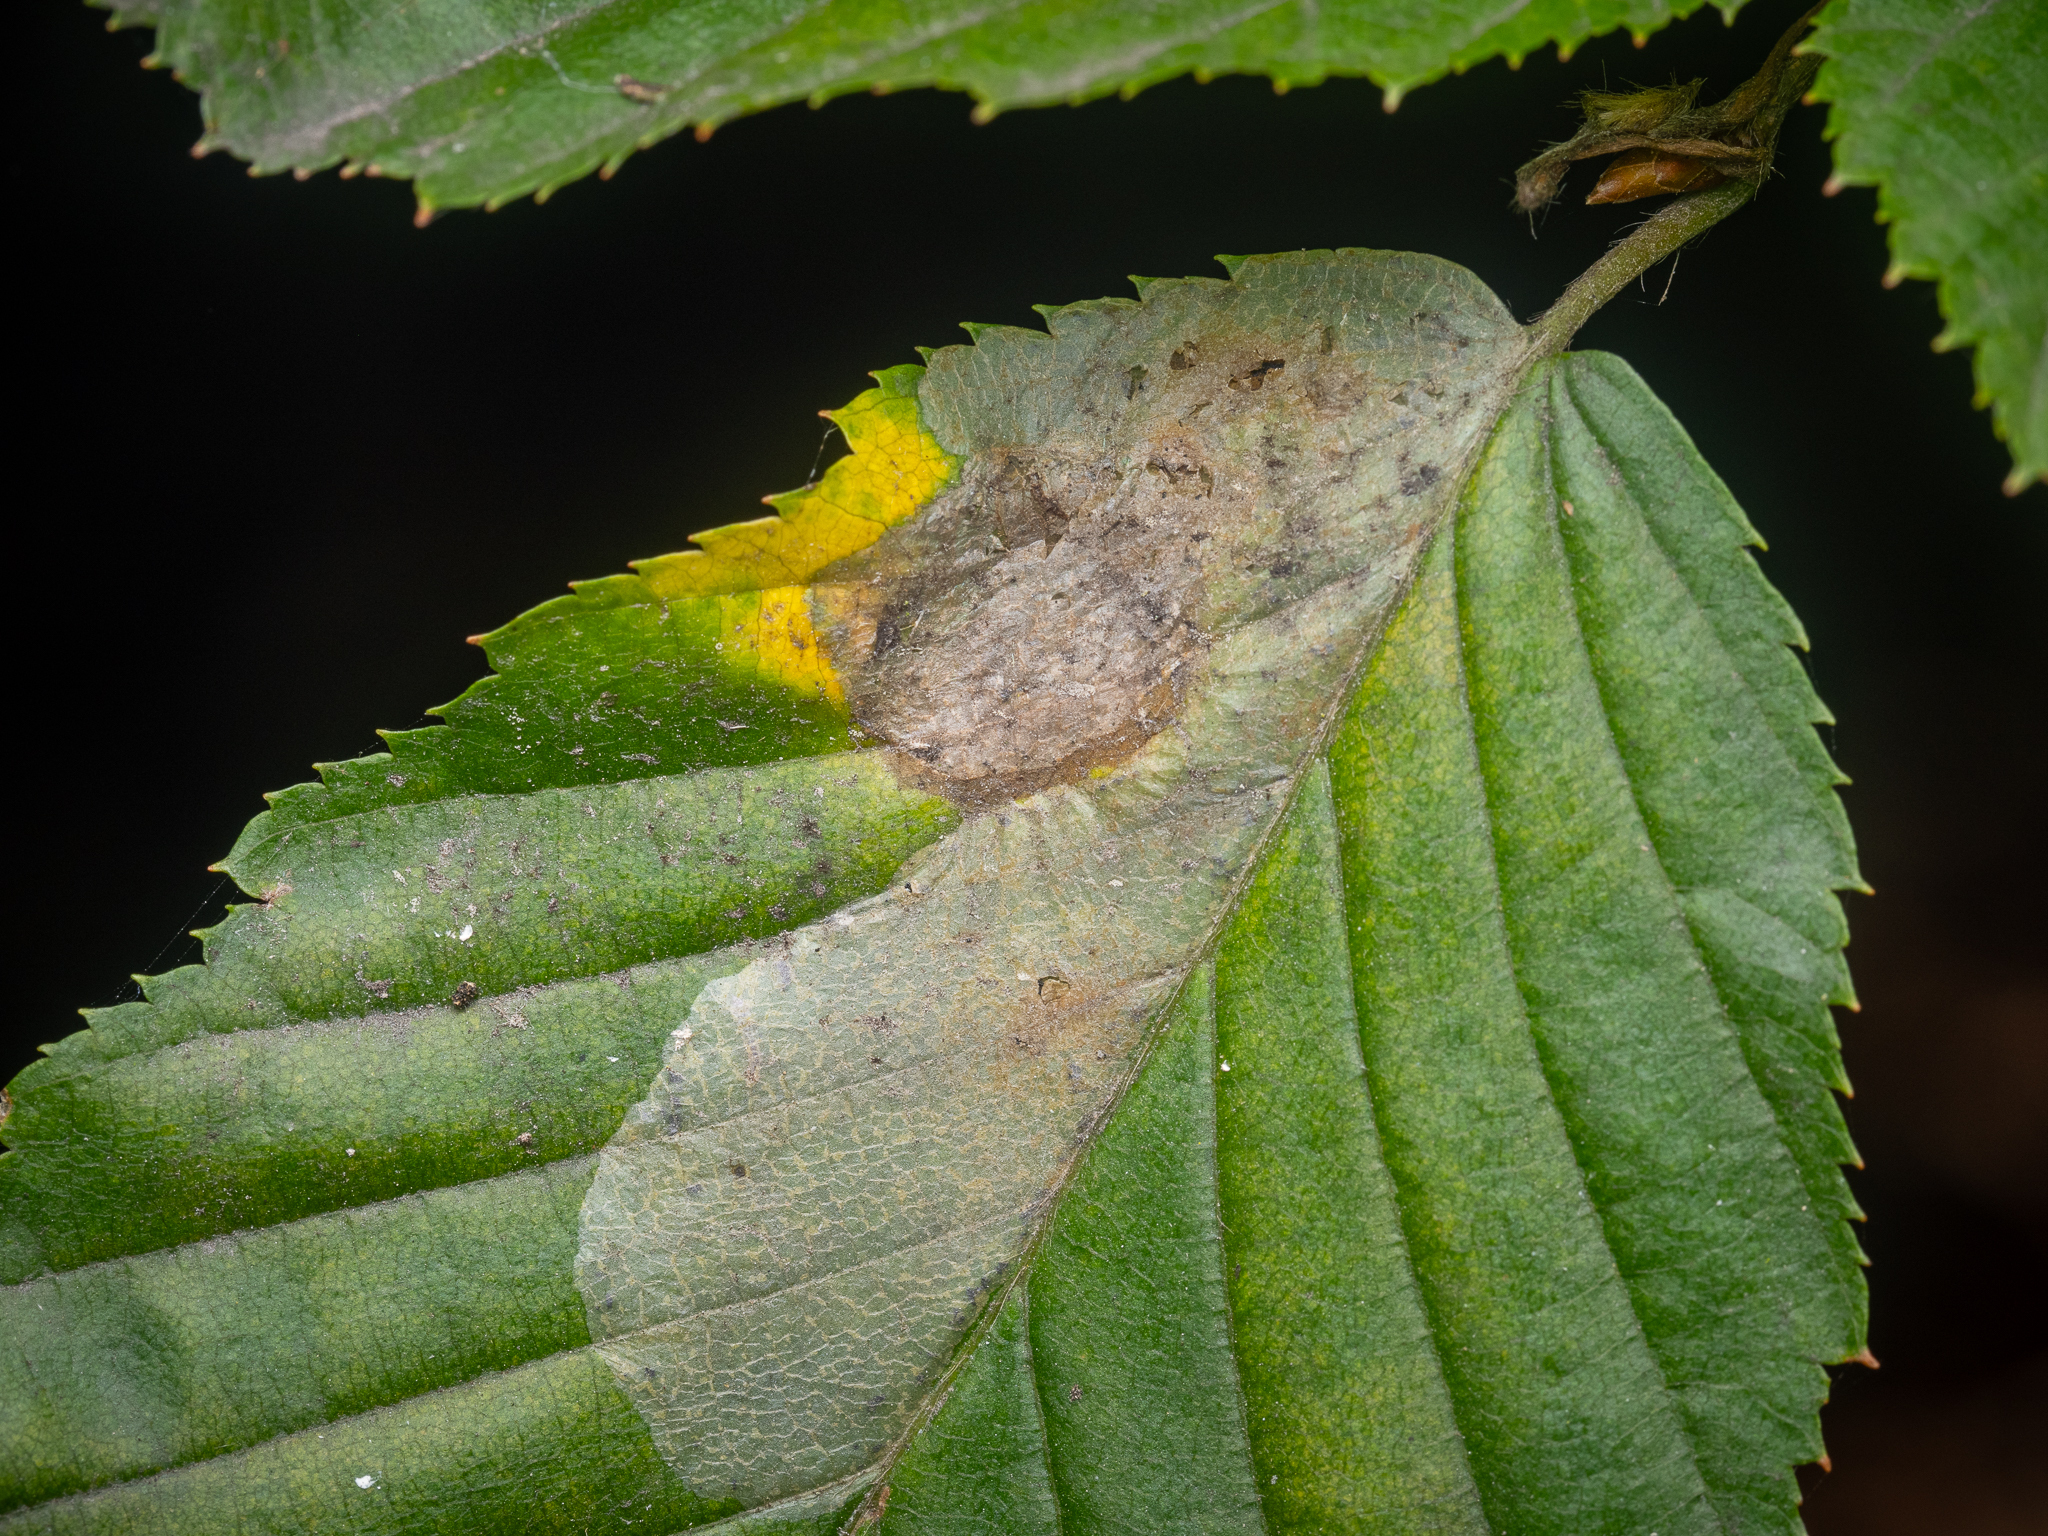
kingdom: Animalia
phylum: Arthropoda
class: Insecta
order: Lepidoptera
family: Gracillariidae
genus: Phyllonorycter
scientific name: Phyllonorycter esperella
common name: Dark hornbeam midget
